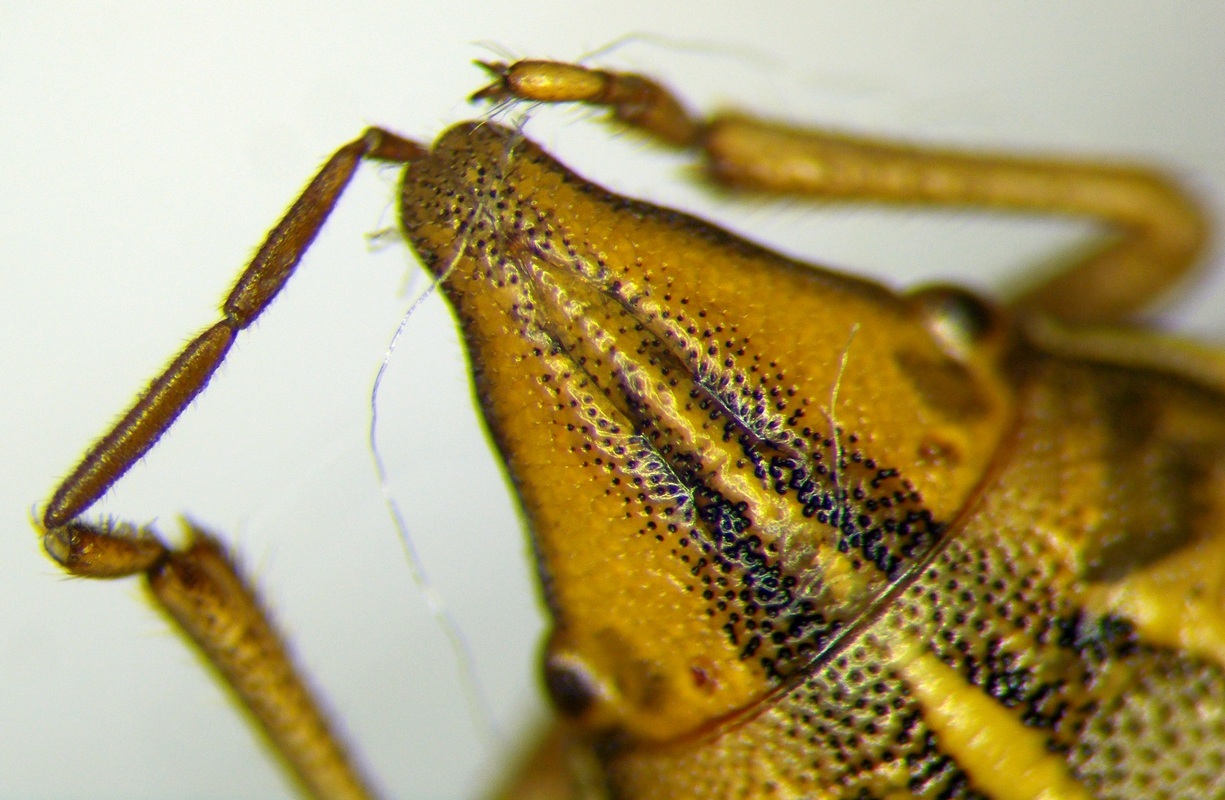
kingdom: Animalia
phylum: Arthropoda
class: Insecta
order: Hemiptera
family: Pentatomidae
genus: Aelia
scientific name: Aelia rostrata
